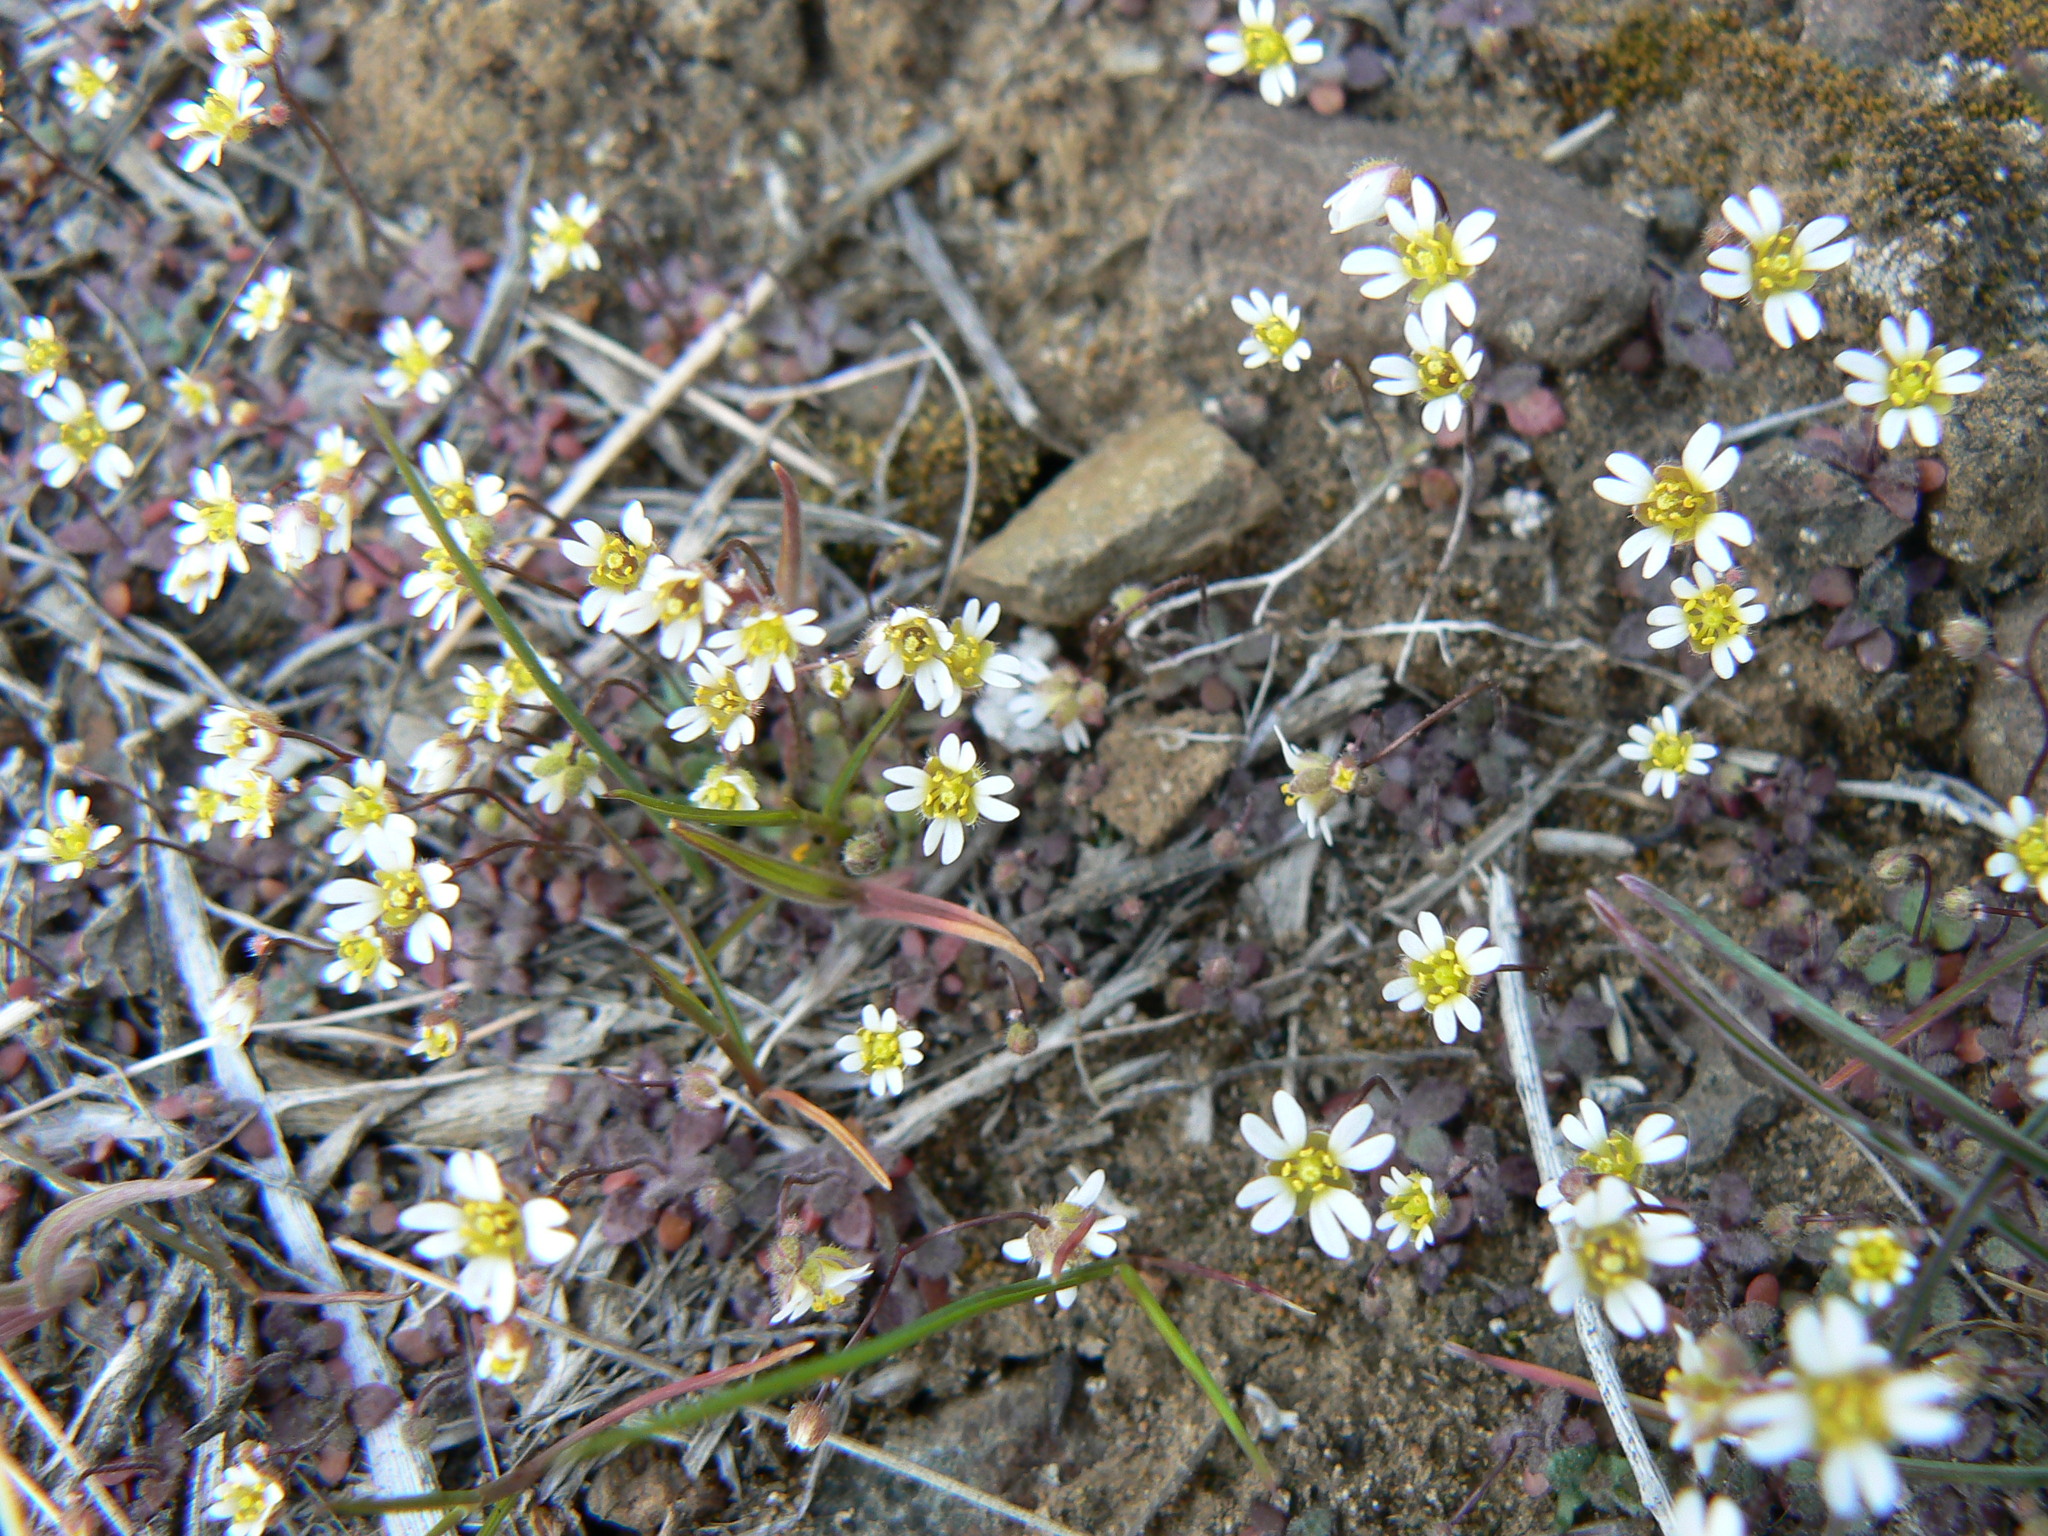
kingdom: Plantae
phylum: Tracheophyta
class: Magnoliopsida
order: Brassicales
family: Brassicaceae
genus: Draba
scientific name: Draba verna
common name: Spring draba
